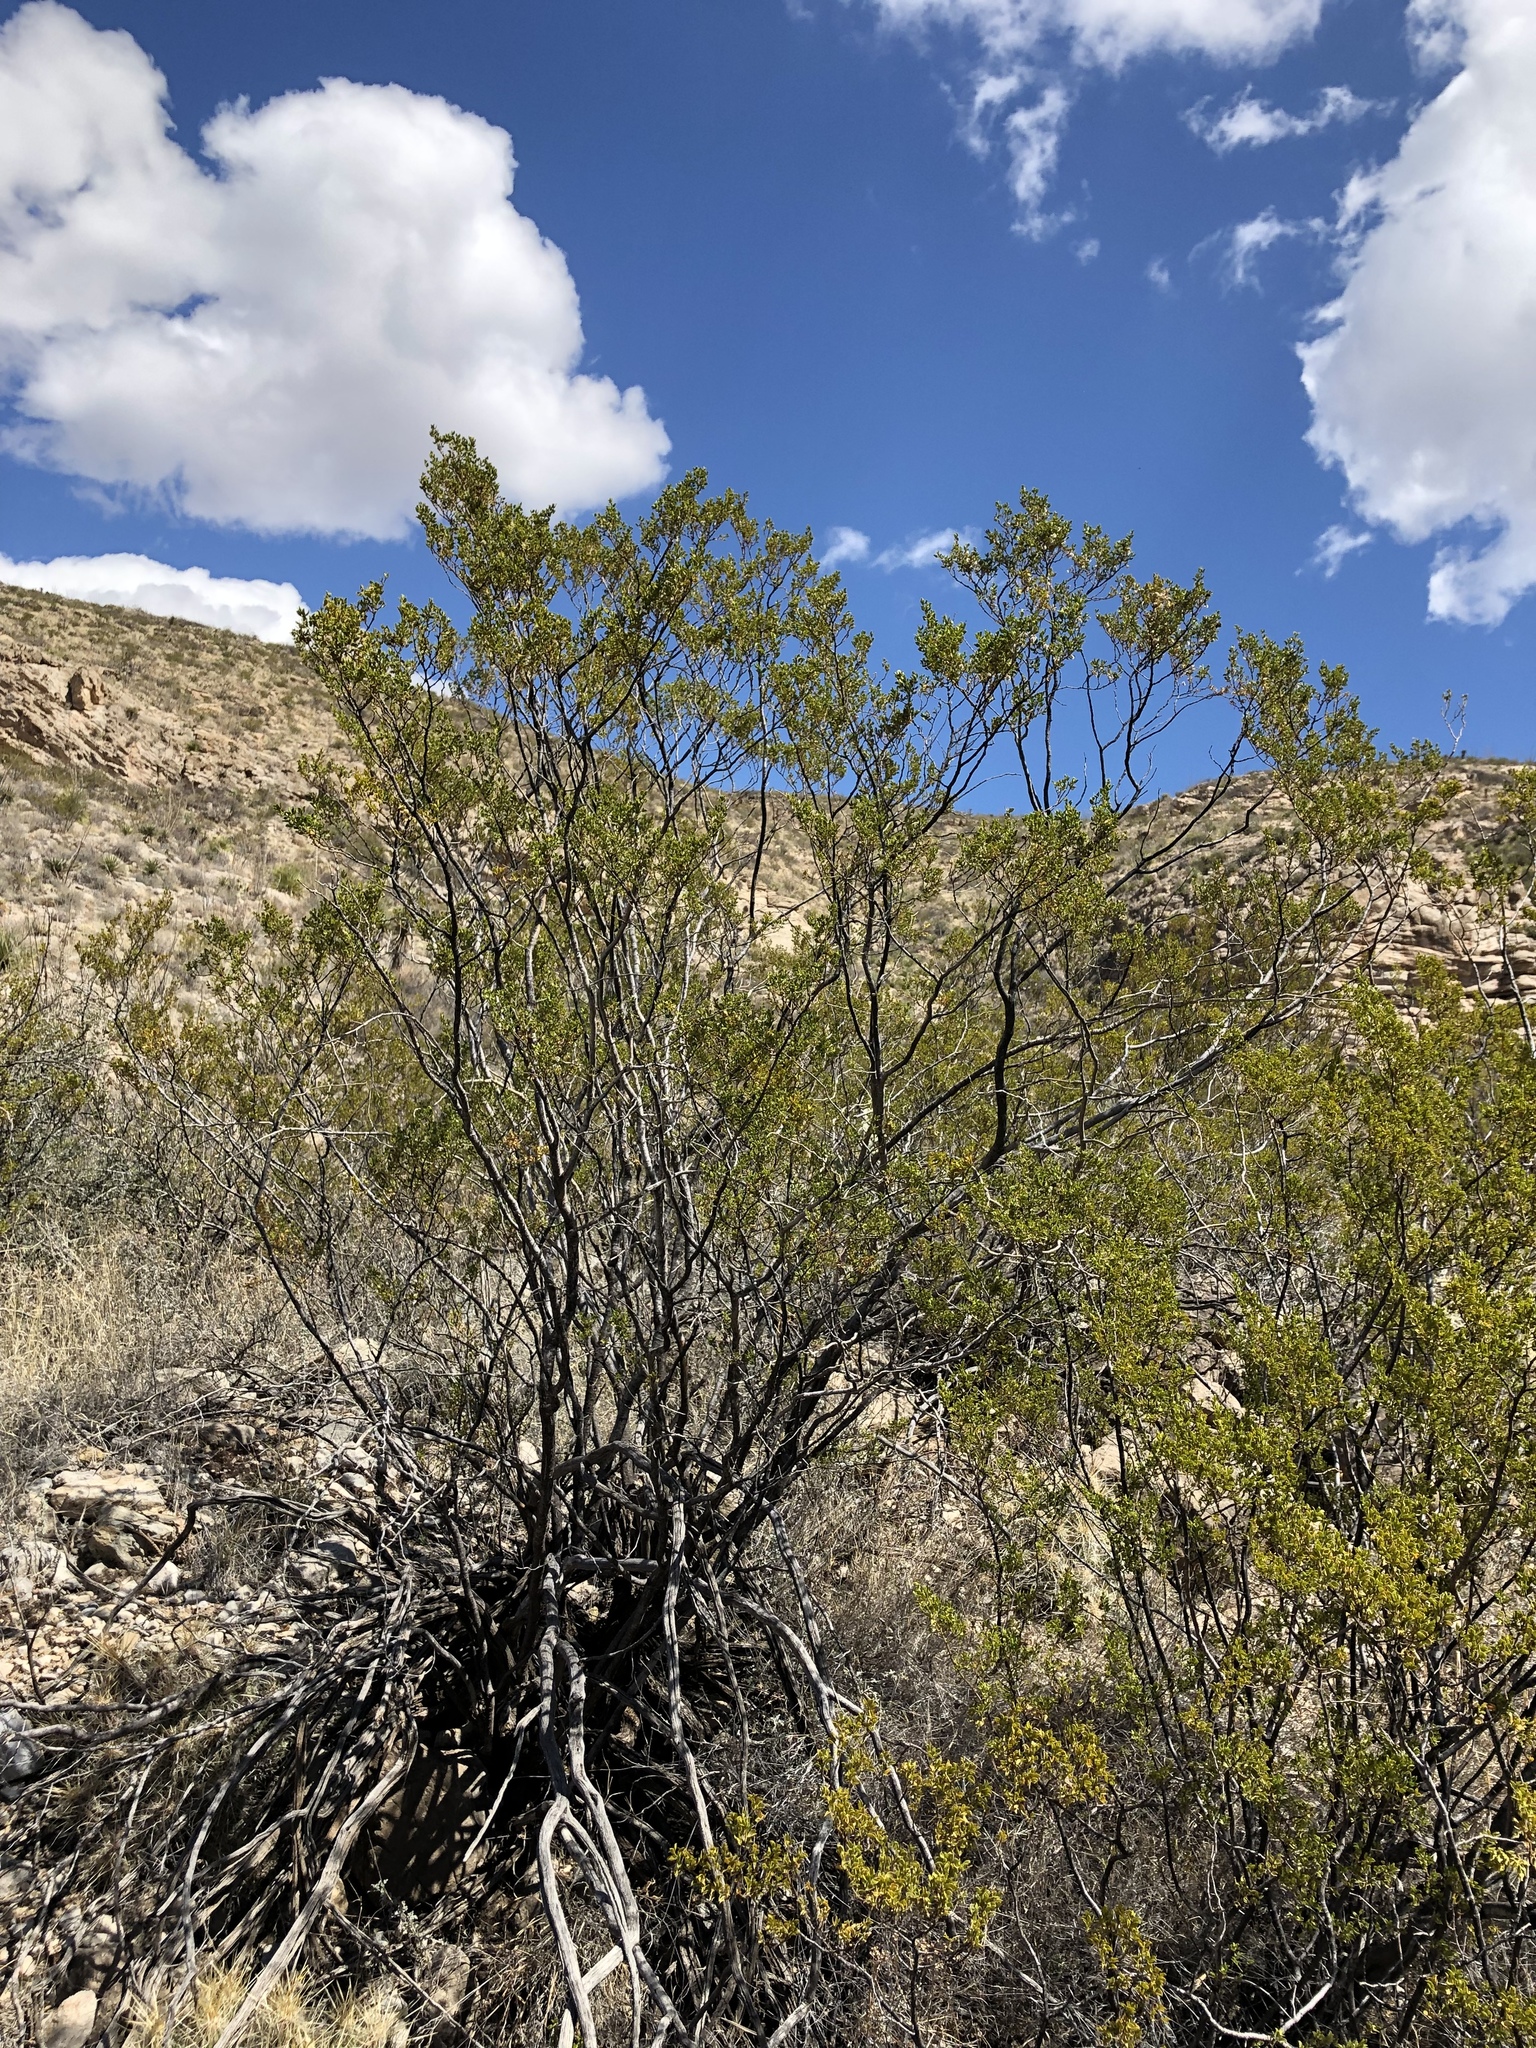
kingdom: Plantae
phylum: Tracheophyta
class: Magnoliopsida
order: Zygophyllales
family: Zygophyllaceae
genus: Larrea
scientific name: Larrea tridentata
